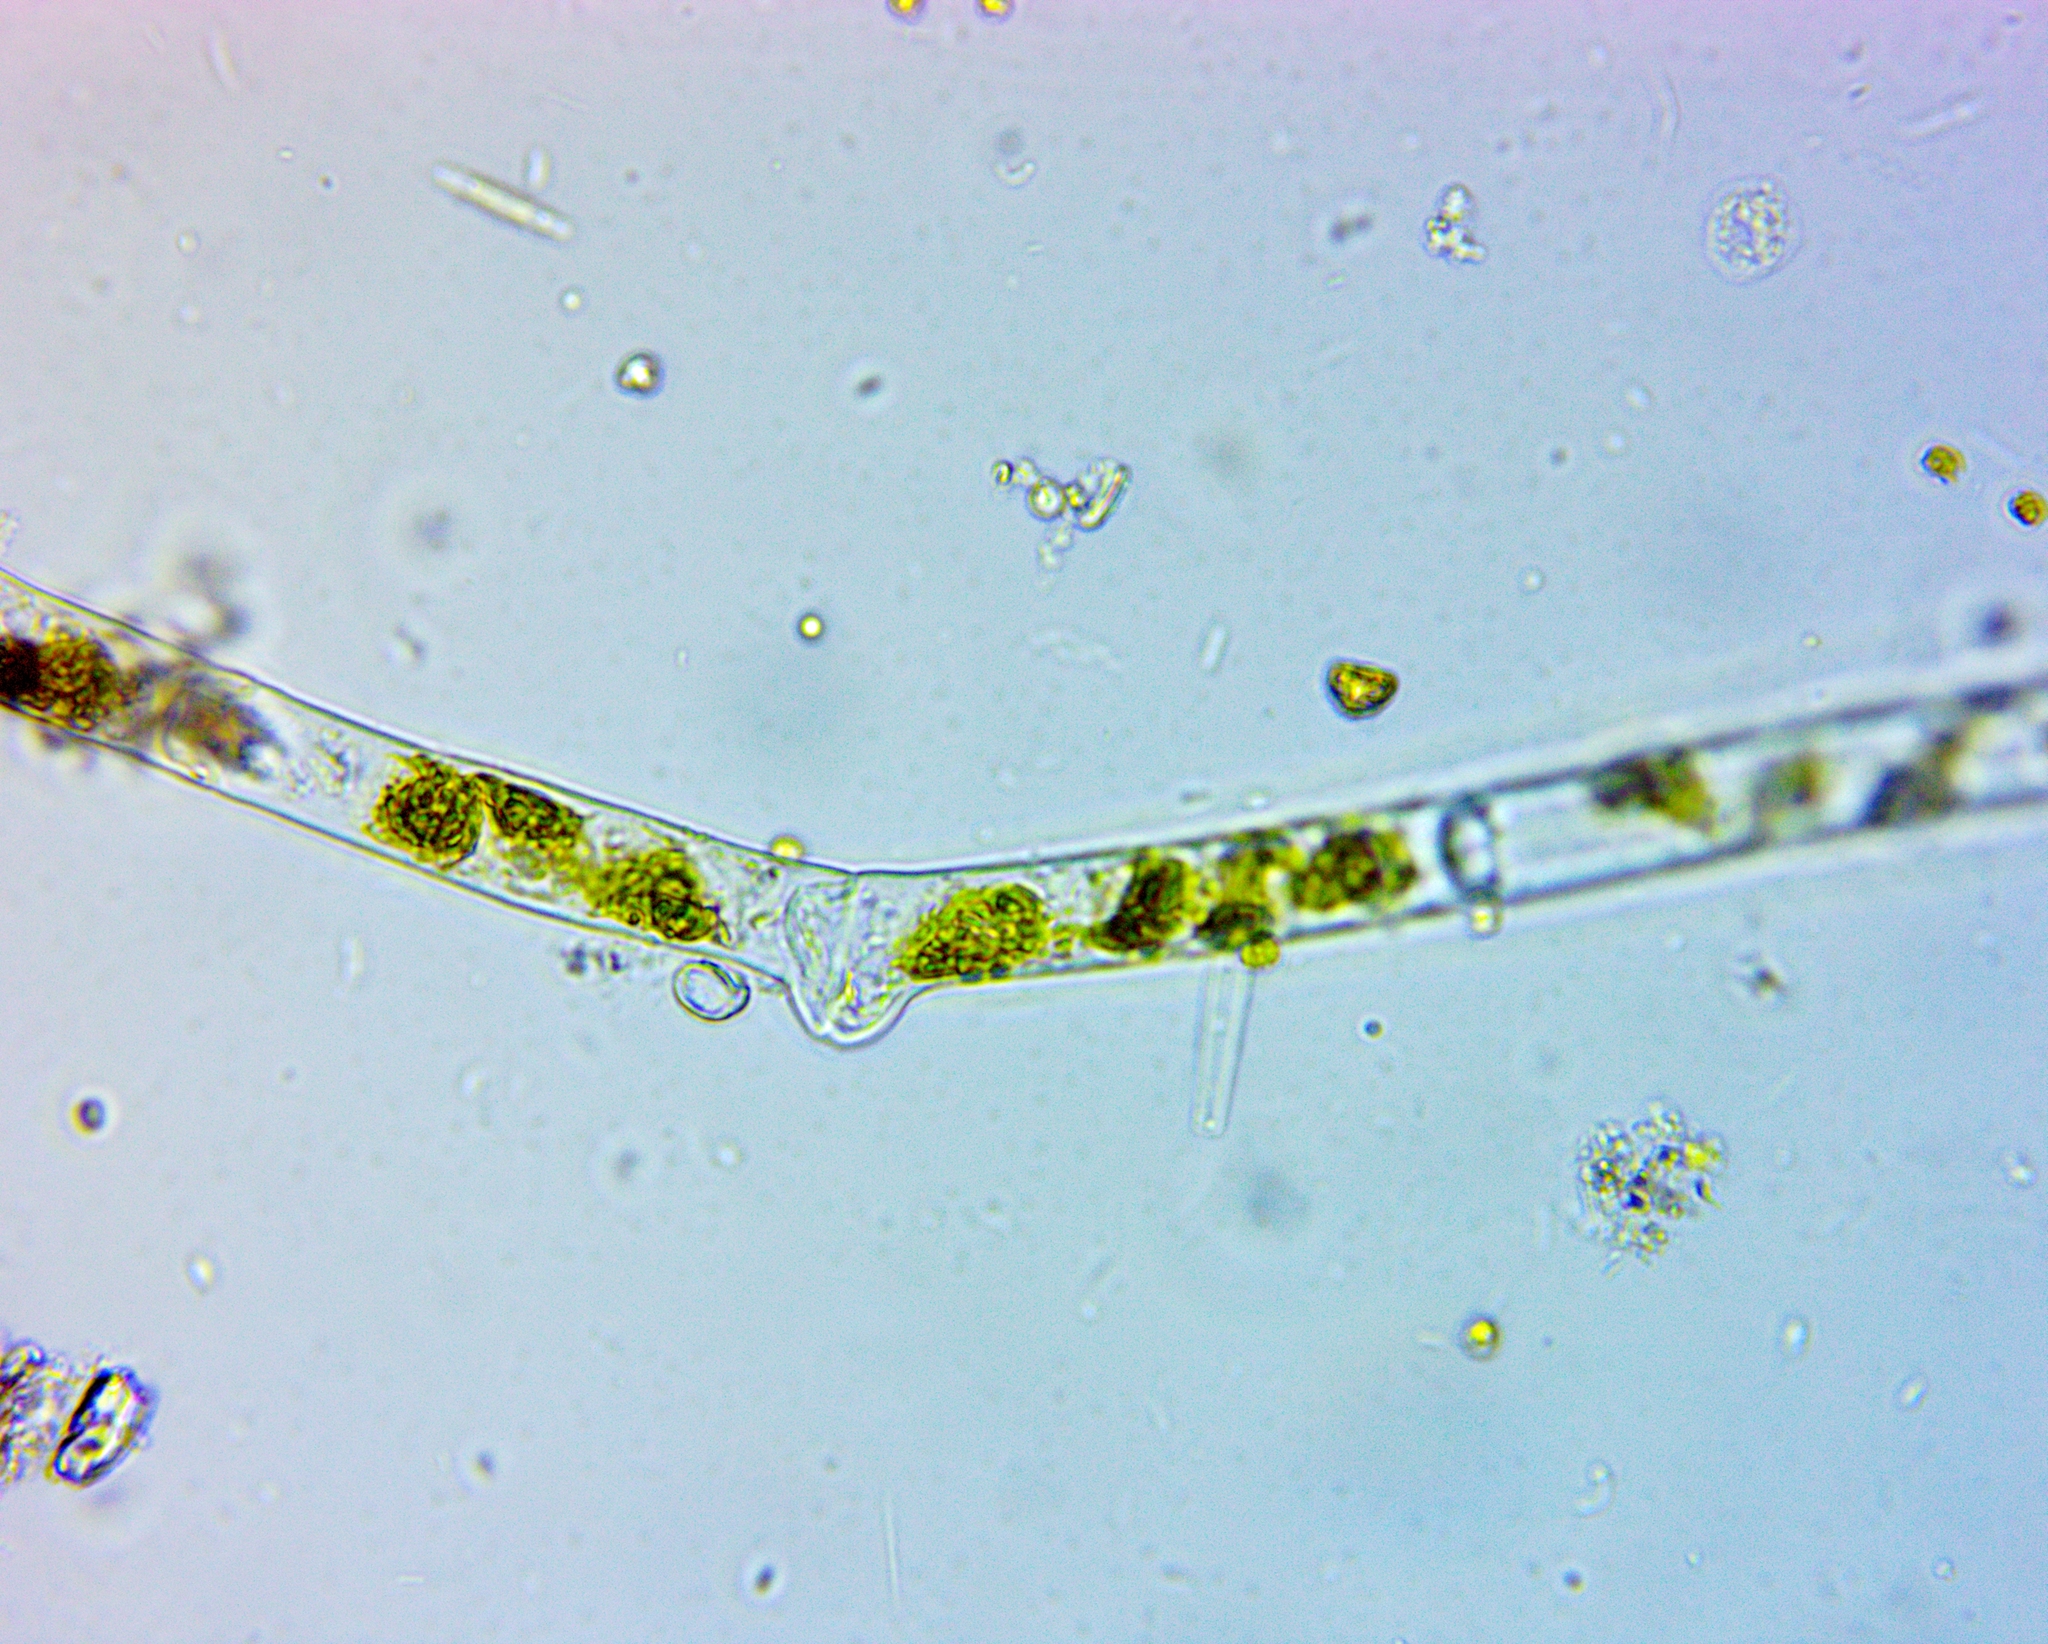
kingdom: Plantae
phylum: Charophyta
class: Zygnematophyceae
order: Zygnematales
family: Zygnemataceae
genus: Spirogyra
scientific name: Spirogyra
